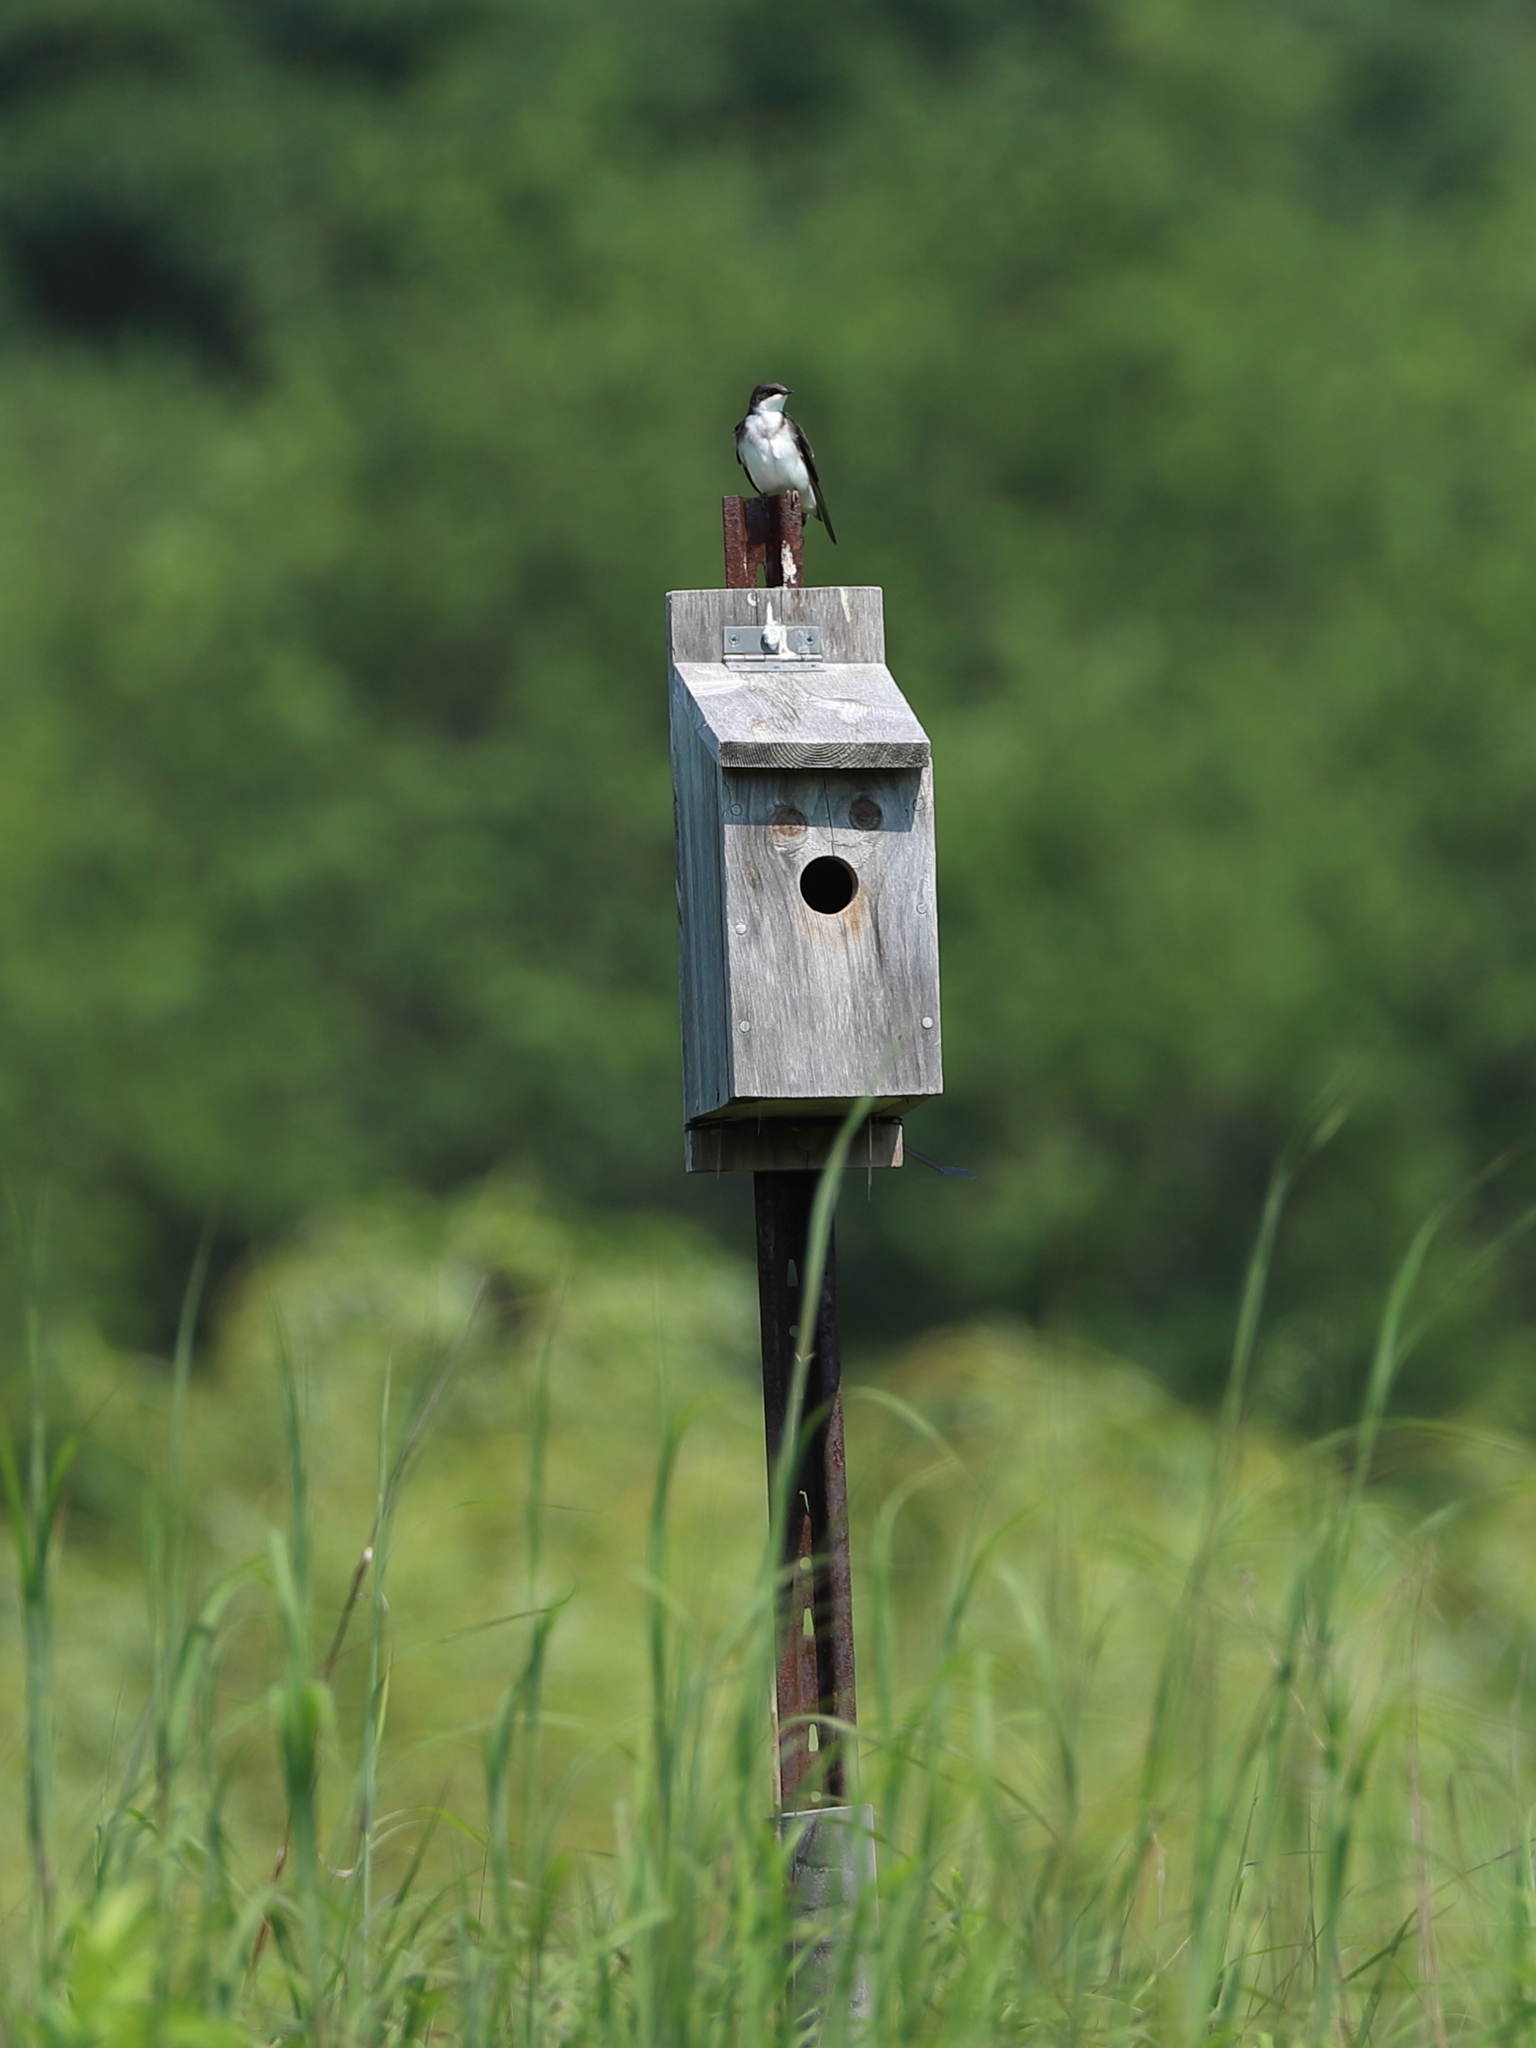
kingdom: Animalia
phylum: Chordata
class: Aves
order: Passeriformes
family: Hirundinidae
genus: Tachycineta
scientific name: Tachycineta bicolor
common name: Tree swallow
